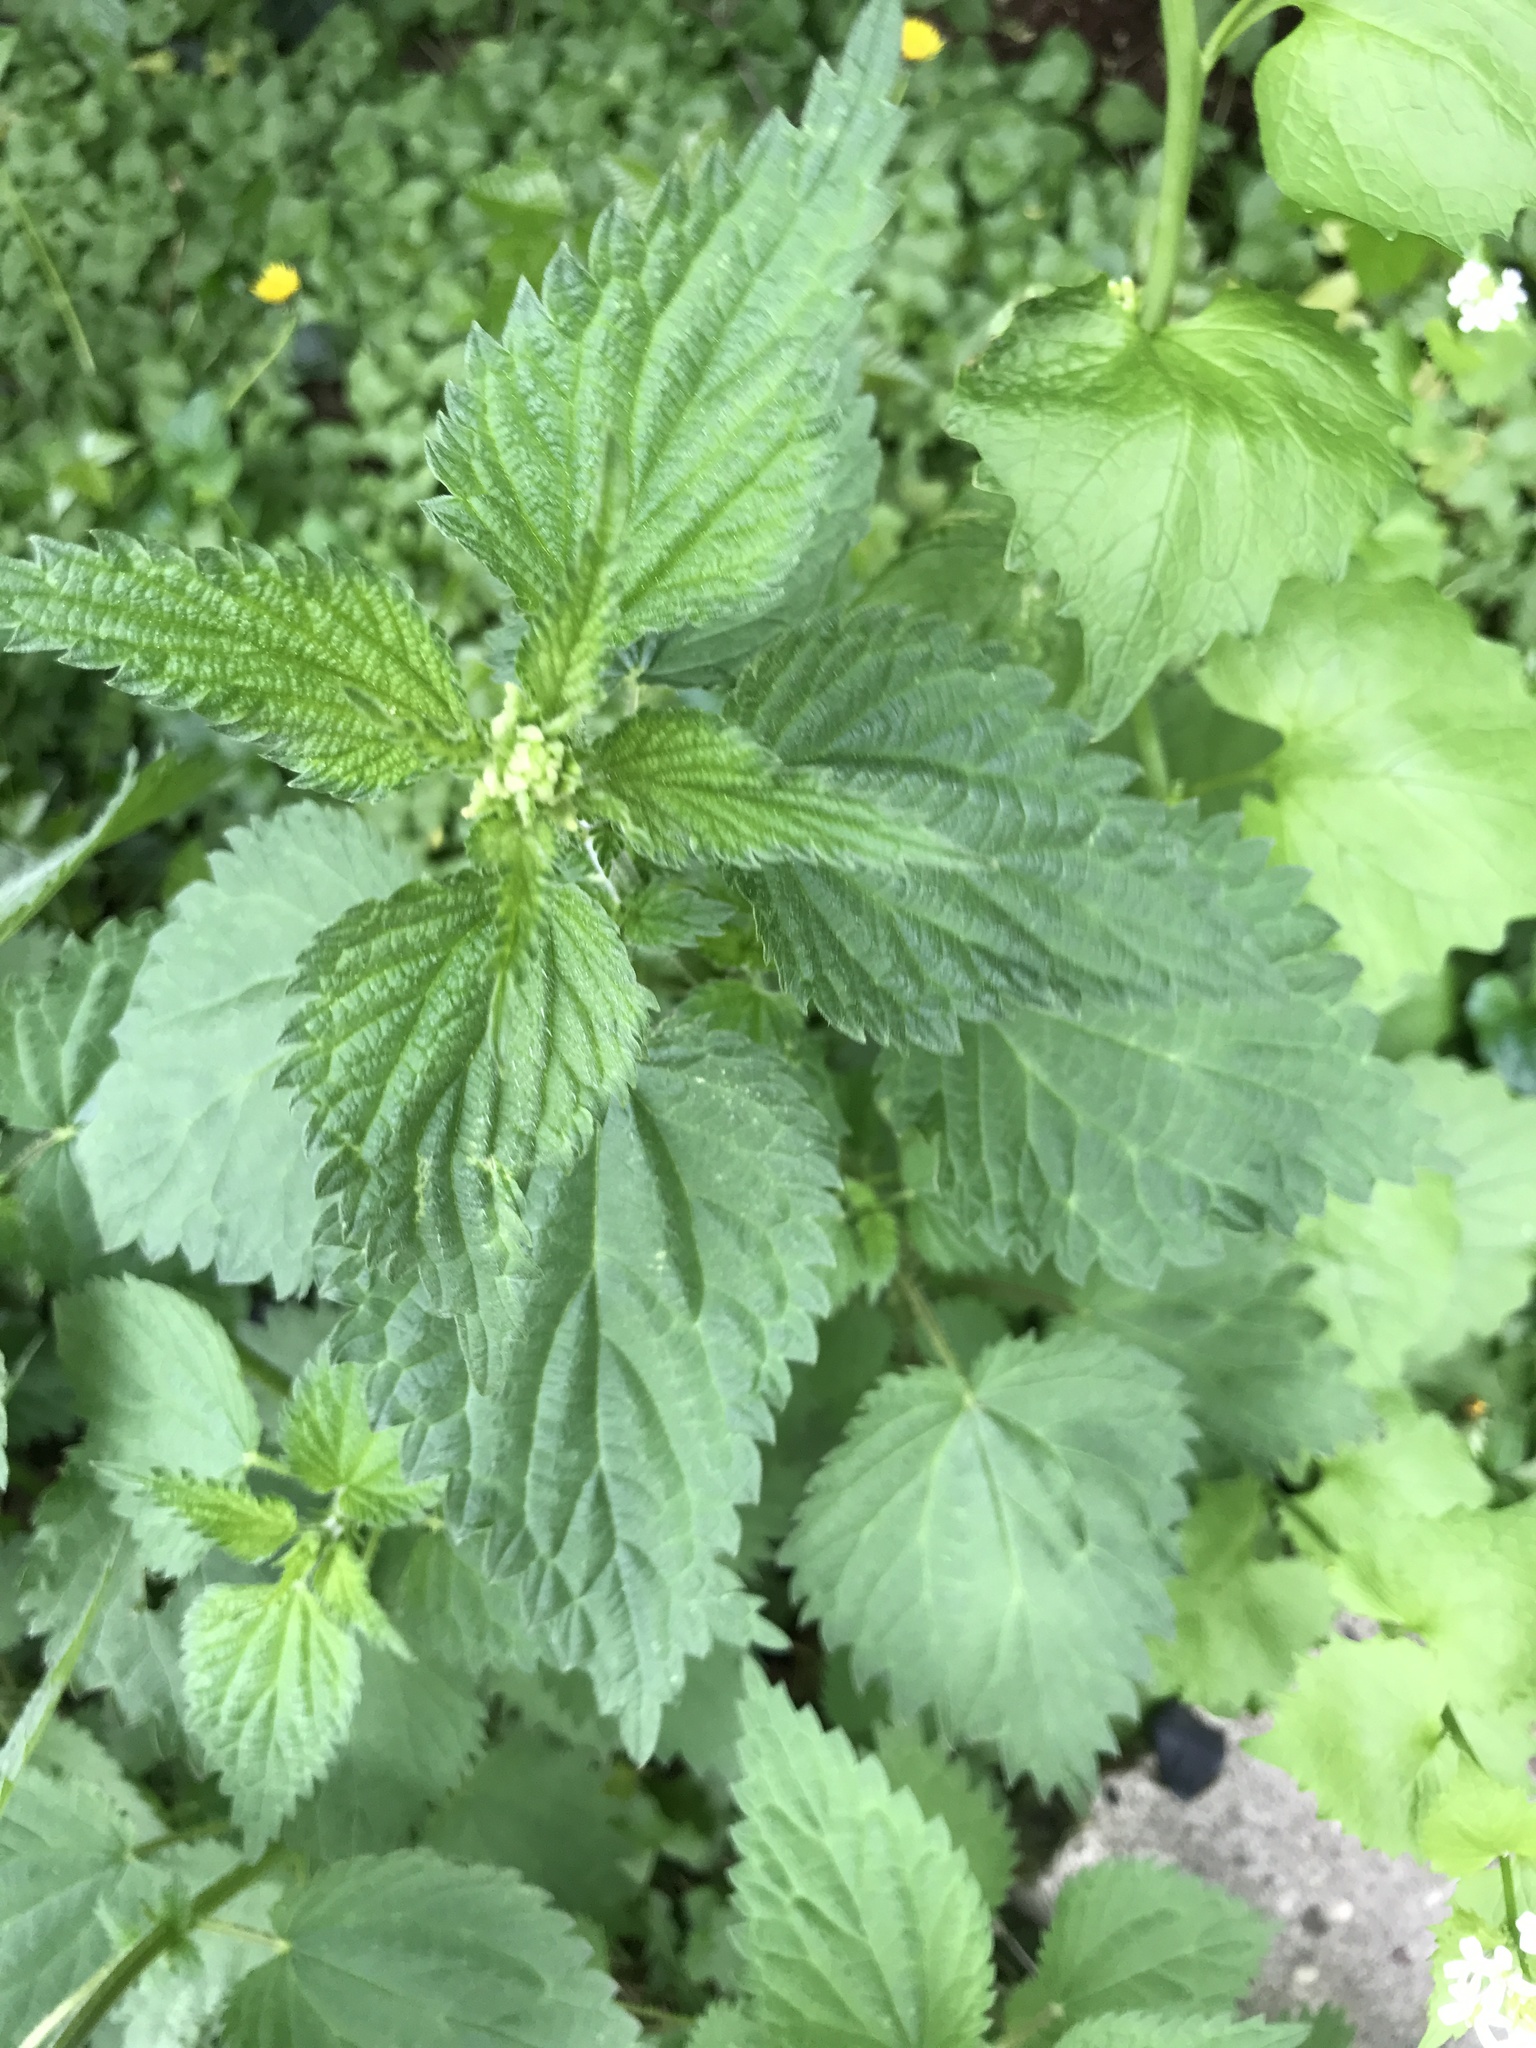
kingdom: Plantae
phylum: Tracheophyta
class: Magnoliopsida
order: Rosales
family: Urticaceae
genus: Urtica
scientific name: Urtica dioica
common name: Common nettle
